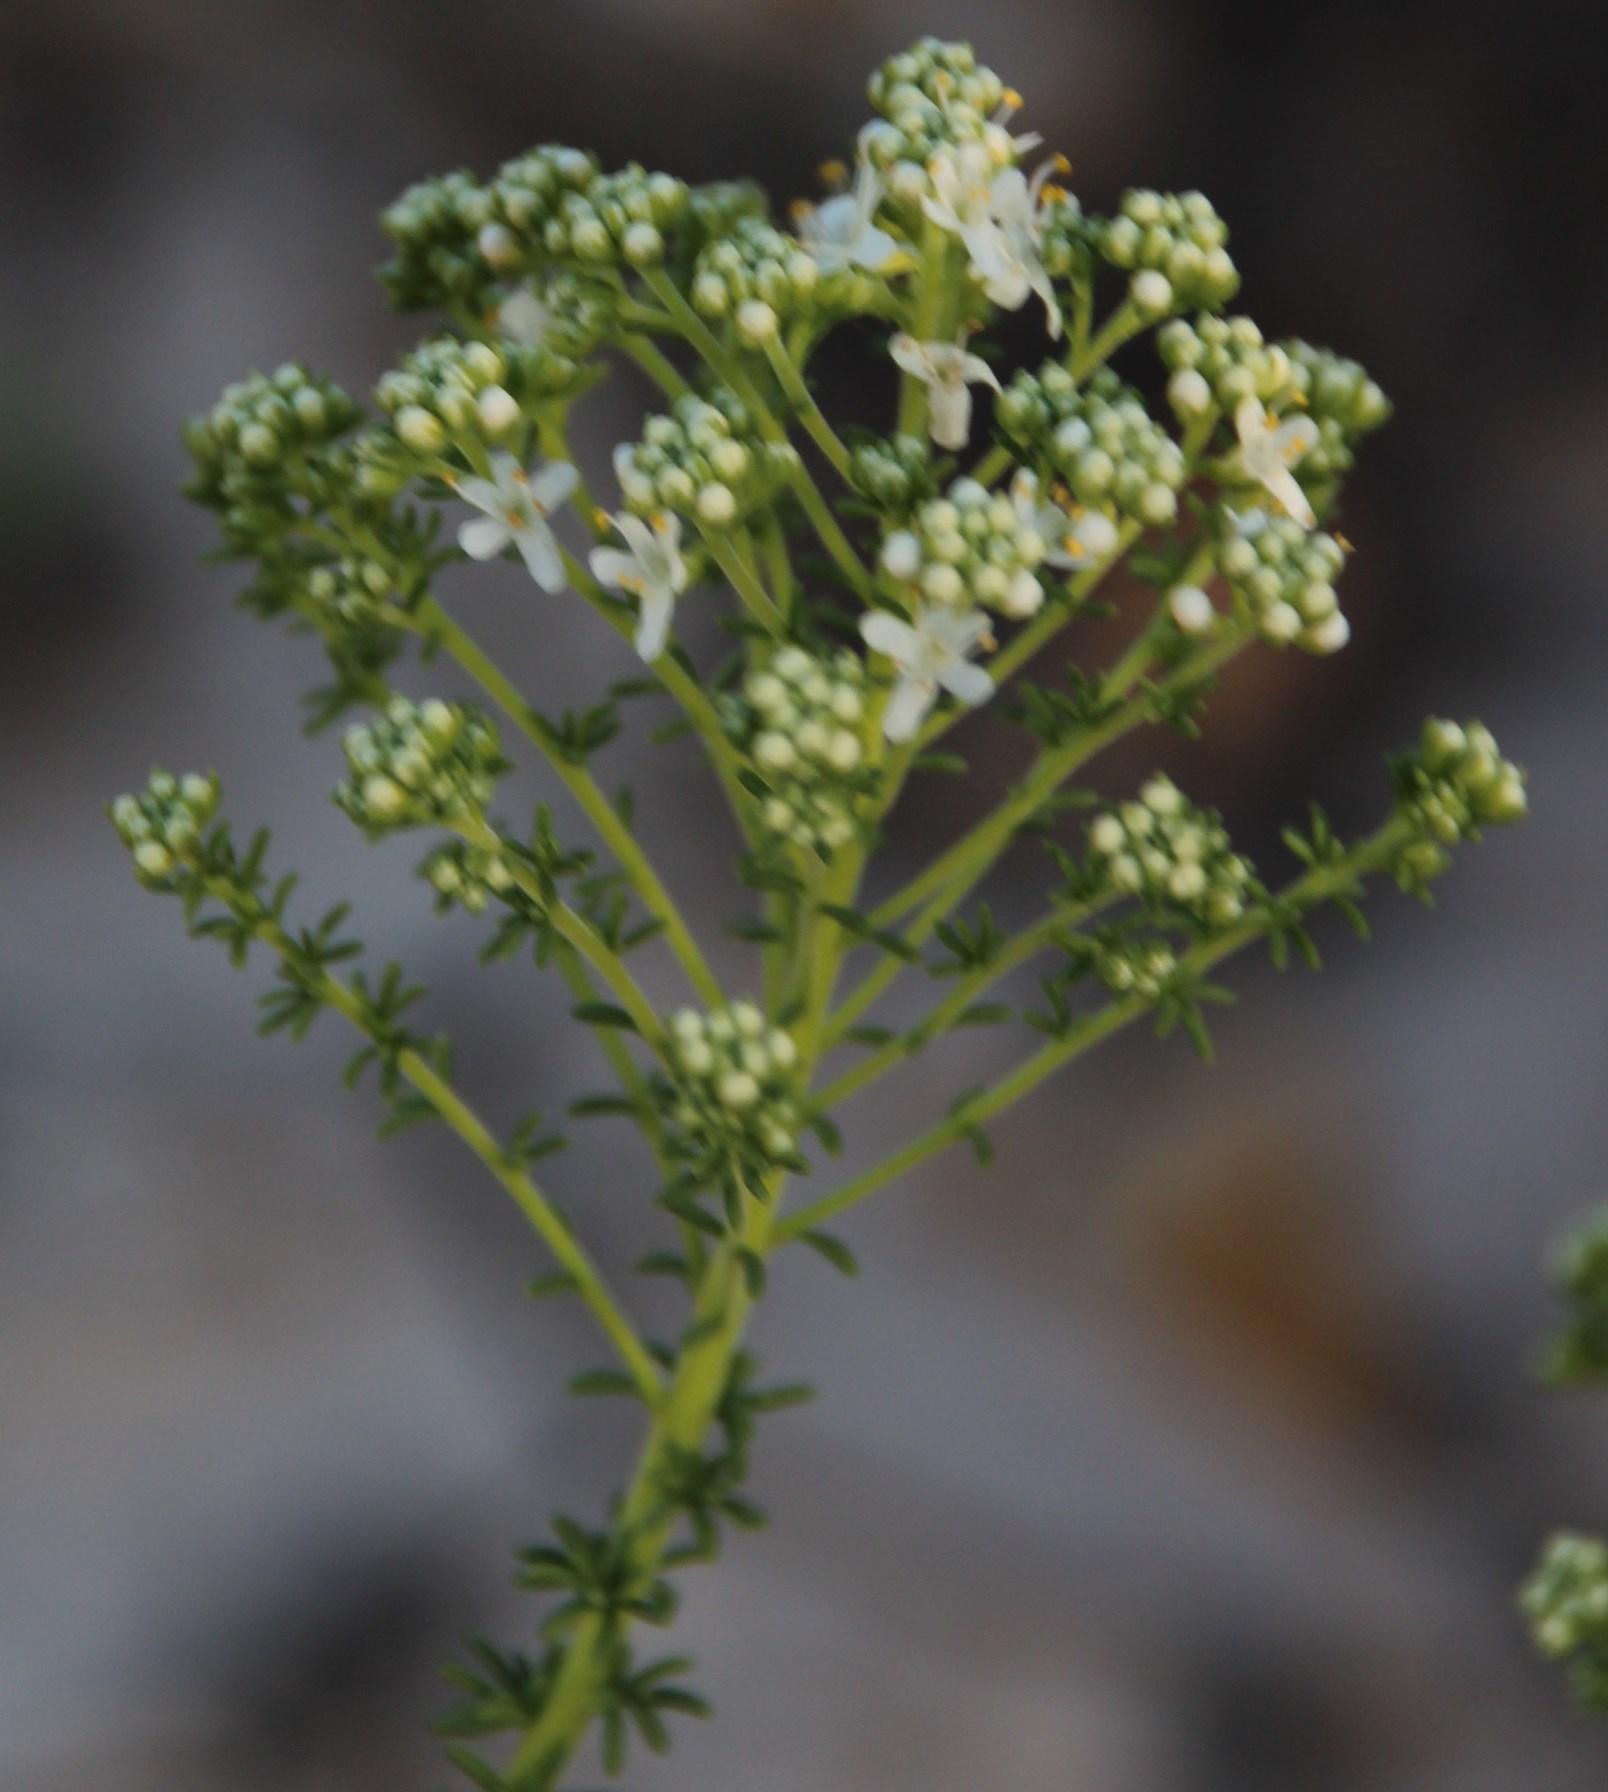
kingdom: Plantae
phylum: Tracheophyta
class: Magnoliopsida
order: Lamiales
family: Scrophulariaceae
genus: Selago
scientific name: Selago dolosa
